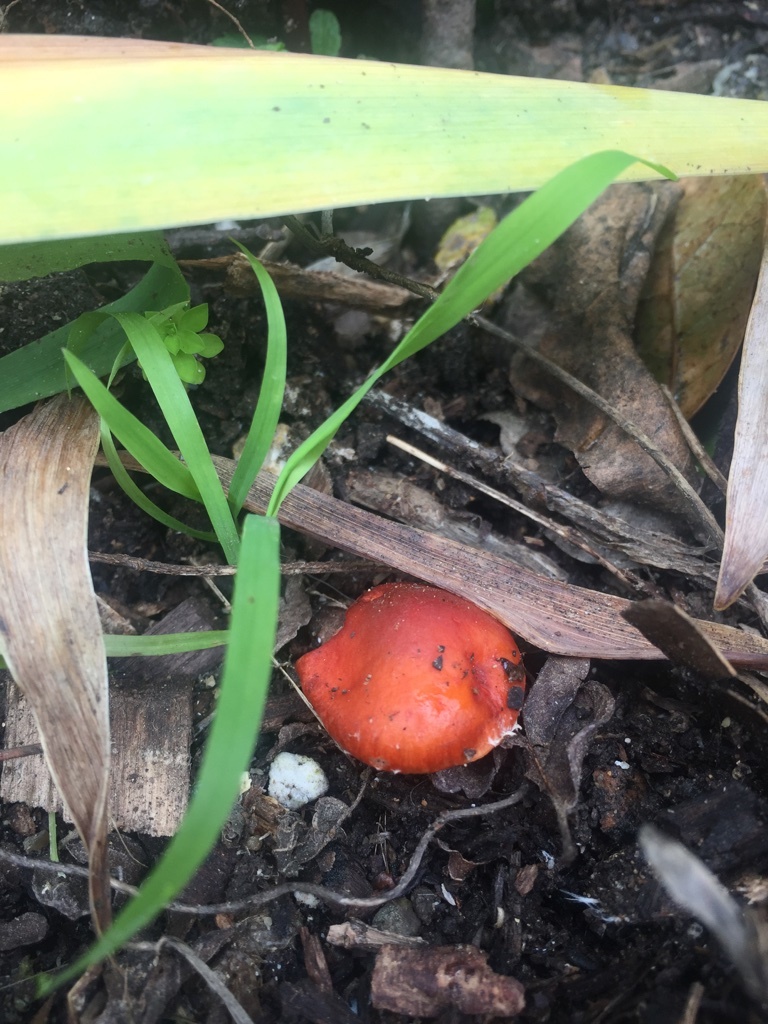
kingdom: Fungi
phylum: Basidiomycota
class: Agaricomycetes
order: Agaricales
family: Strophariaceae
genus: Leratiomyces
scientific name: Leratiomyces ceres
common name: Redlead roundhead
